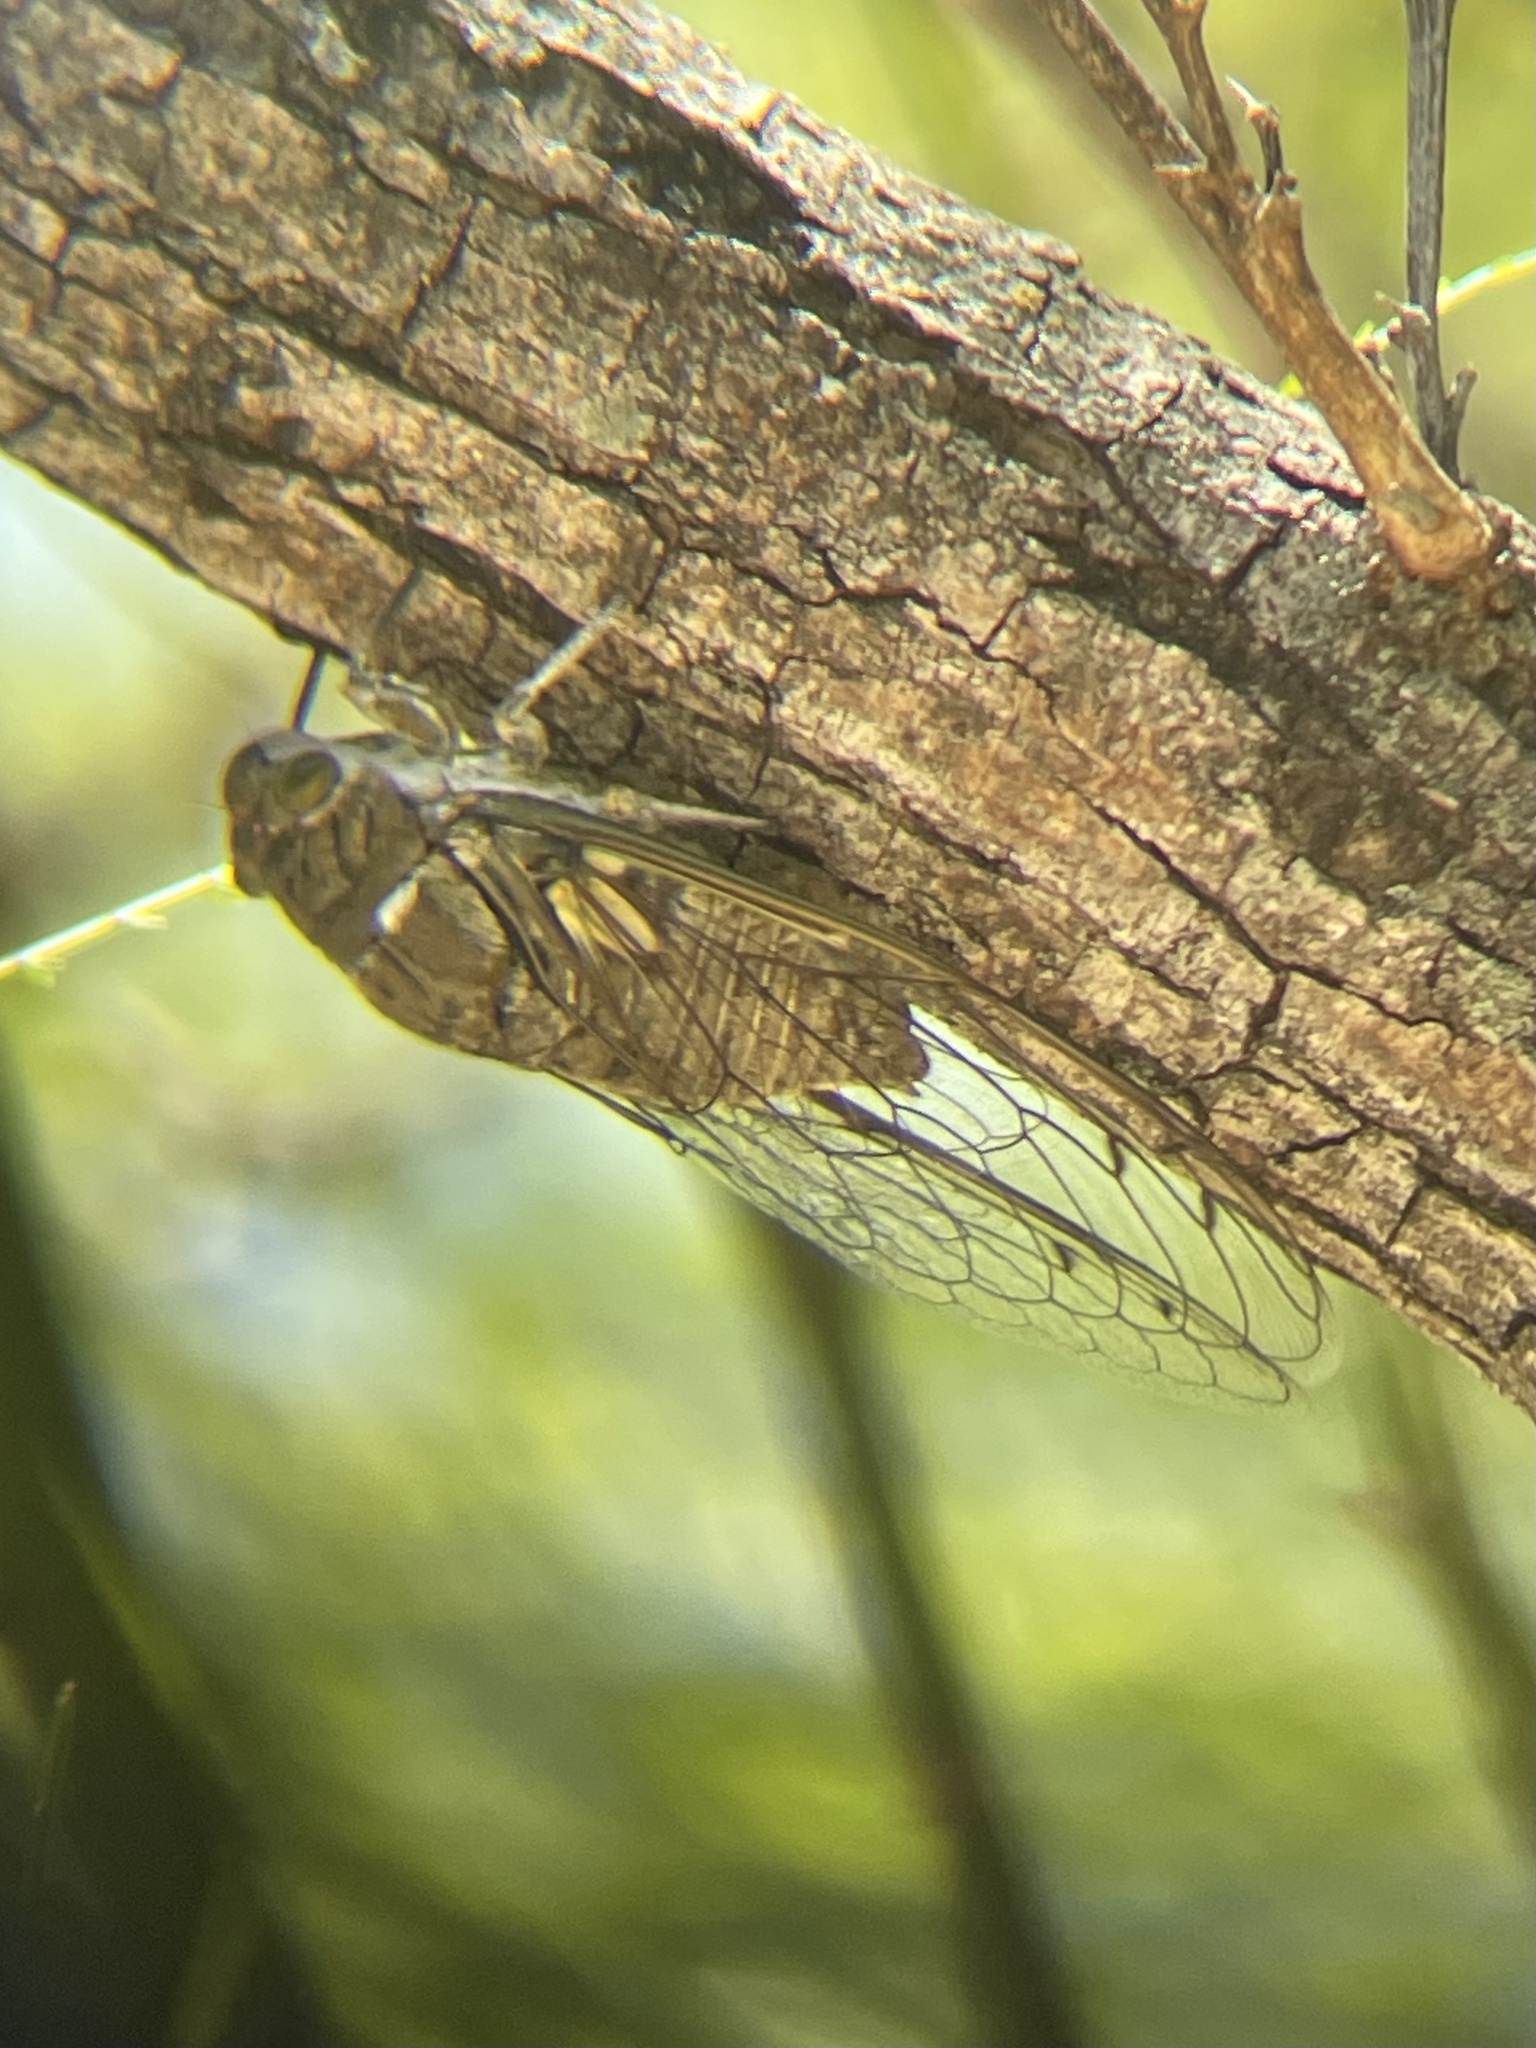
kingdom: Animalia
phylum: Arthropoda
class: Insecta
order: Hemiptera
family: Cicadidae
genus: Quesada
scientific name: Quesada gigas
